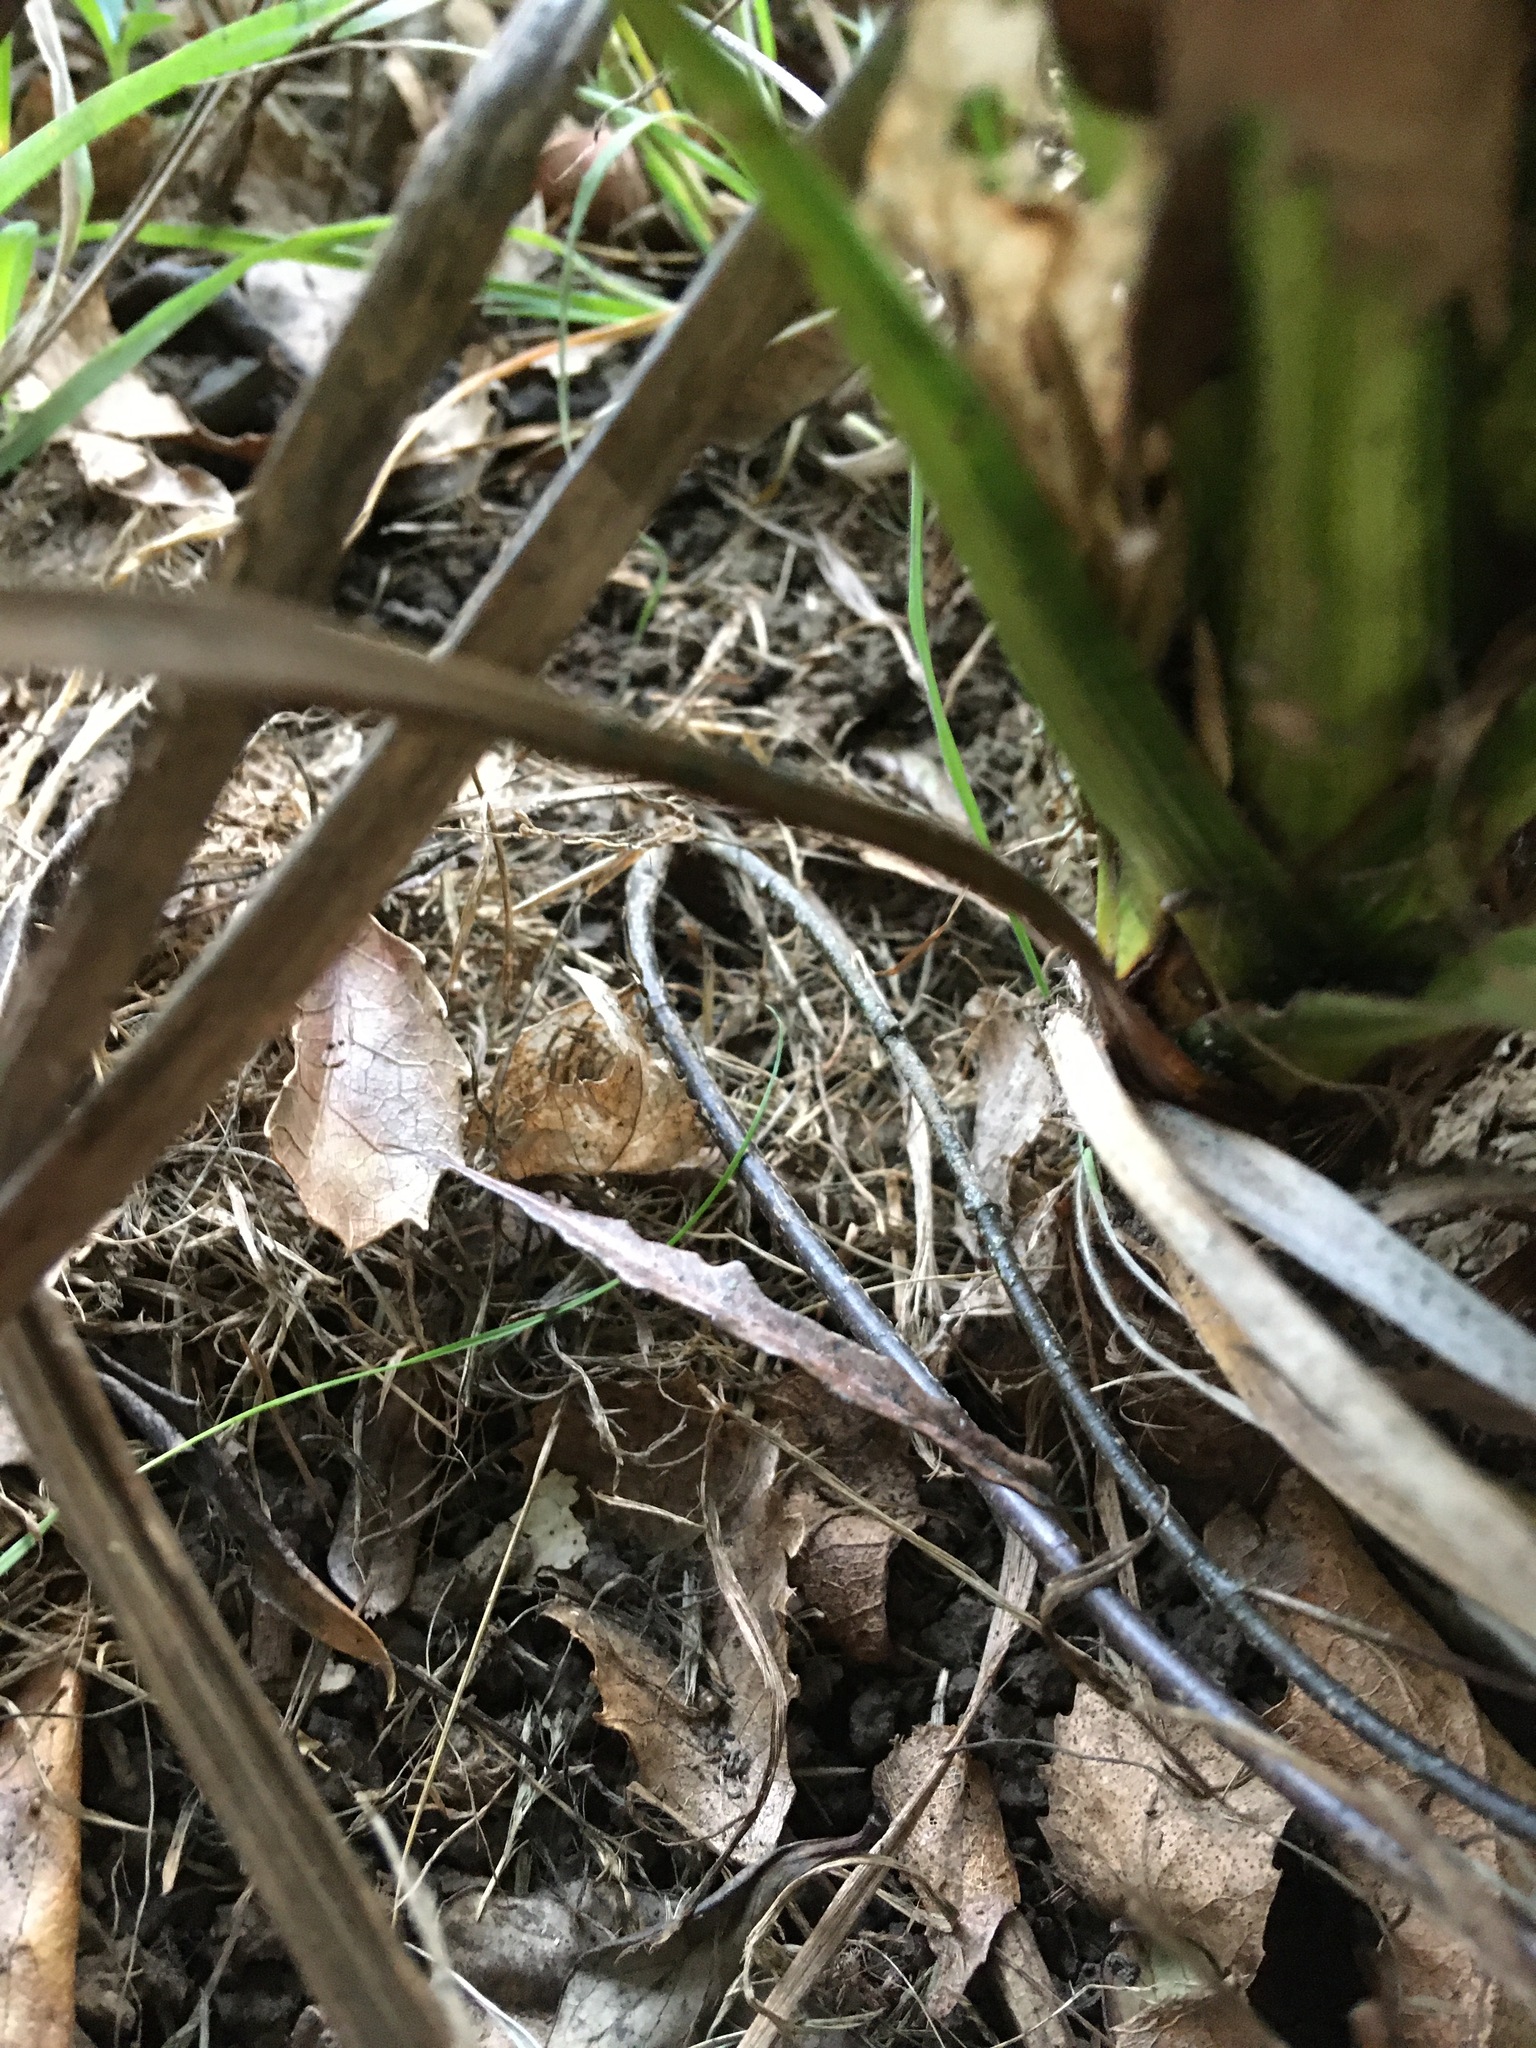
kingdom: Plantae
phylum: Tracheophyta
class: Magnoliopsida
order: Gentianales
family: Apocynaceae
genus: Parsonsia
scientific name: Parsonsia heterophylla
